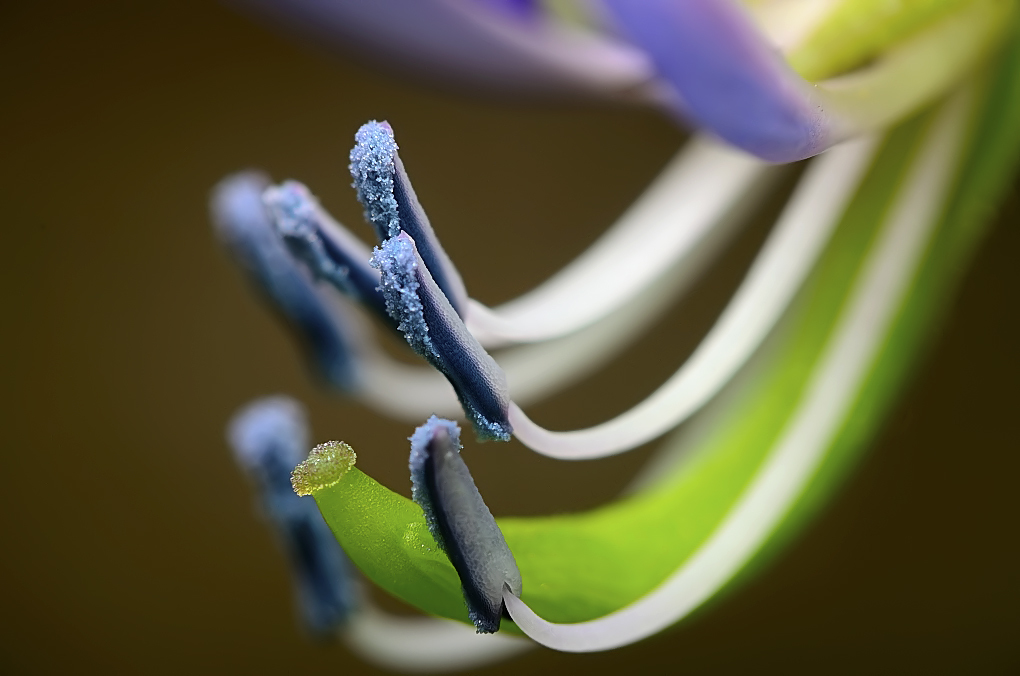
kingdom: Plantae
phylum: Tracheophyta
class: Magnoliopsida
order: Brassicales
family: Cleomaceae
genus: Sieruela
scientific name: Sieruela rutidosperma
